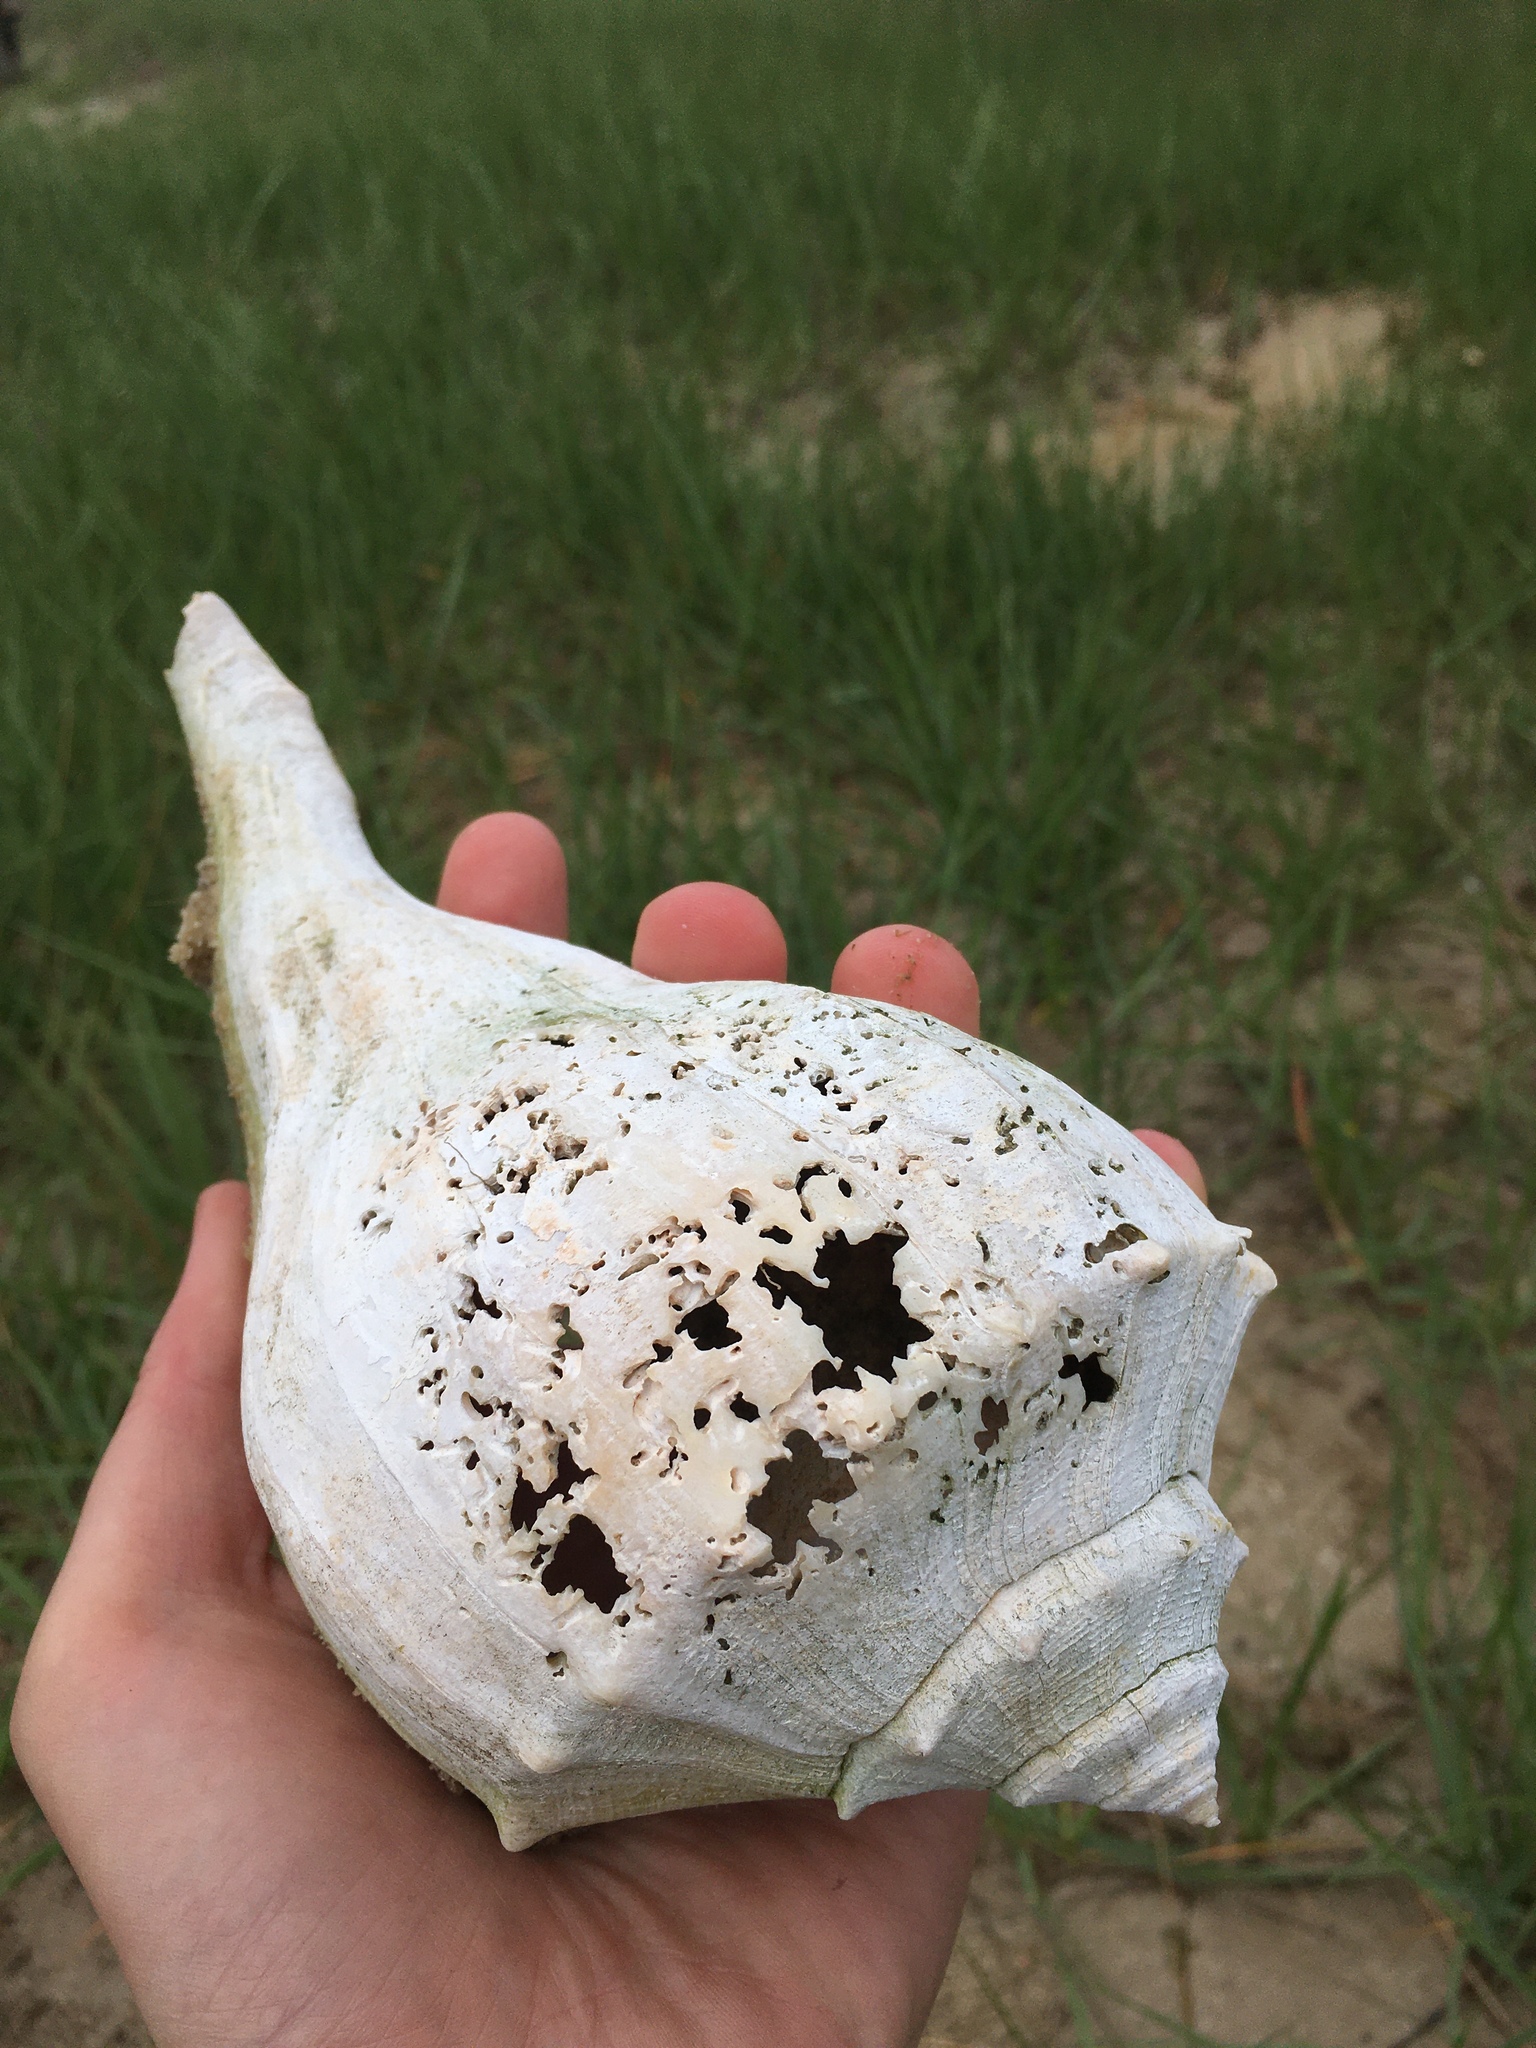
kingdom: Animalia
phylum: Mollusca
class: Gastropoda
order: Neogastropoda
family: Busyconidae
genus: Sinistrofulgur
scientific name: Sinistrofulgur sinistrum
